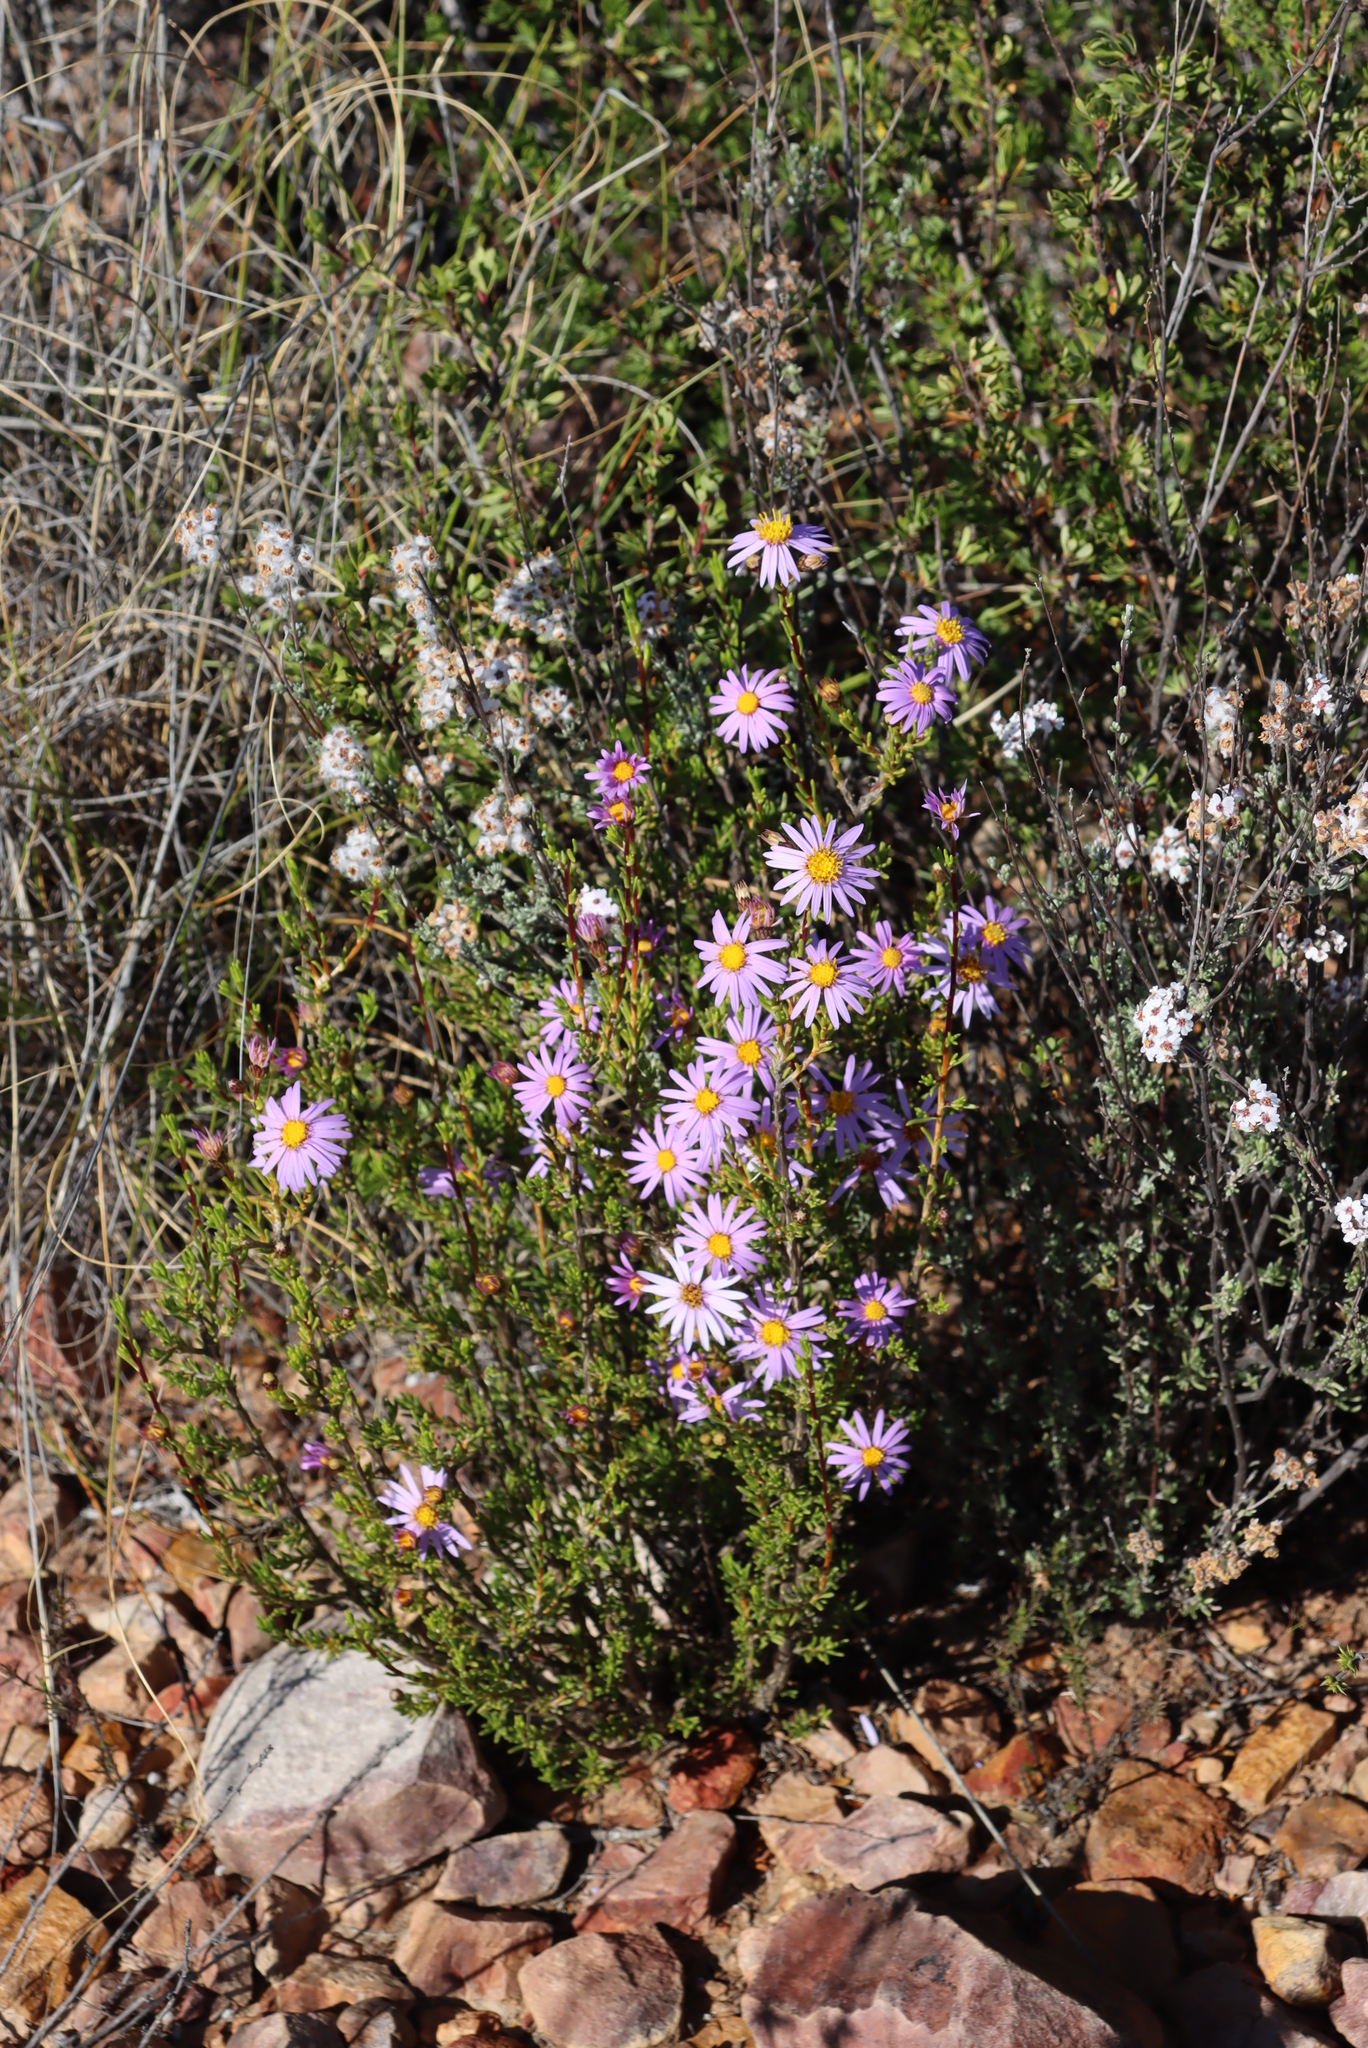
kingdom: Plantae
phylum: Tracheophyta
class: Magnoliopsida
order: Asterales
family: Asteraceae
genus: Felicia
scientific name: Felicia filifolia
